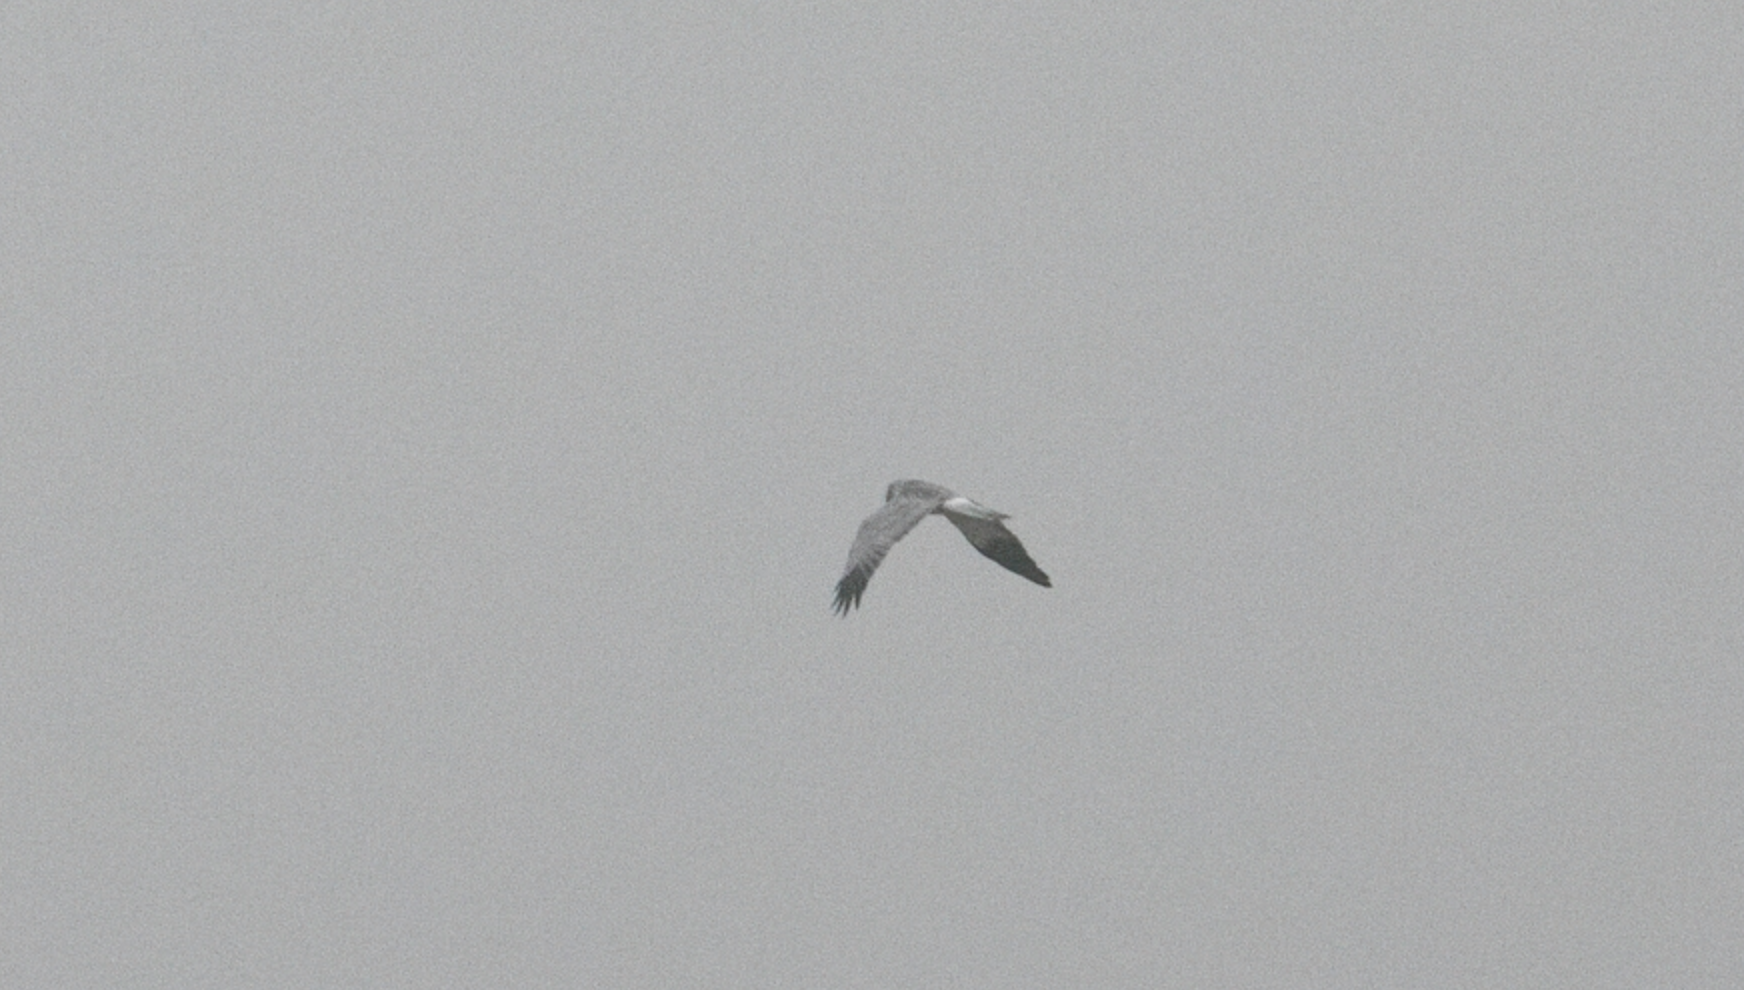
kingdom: Animalia
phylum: Chordata
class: Aves
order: Accipitriformes
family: Accipitridae
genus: Circus
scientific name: Circus cyaneus
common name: Hen harrier
